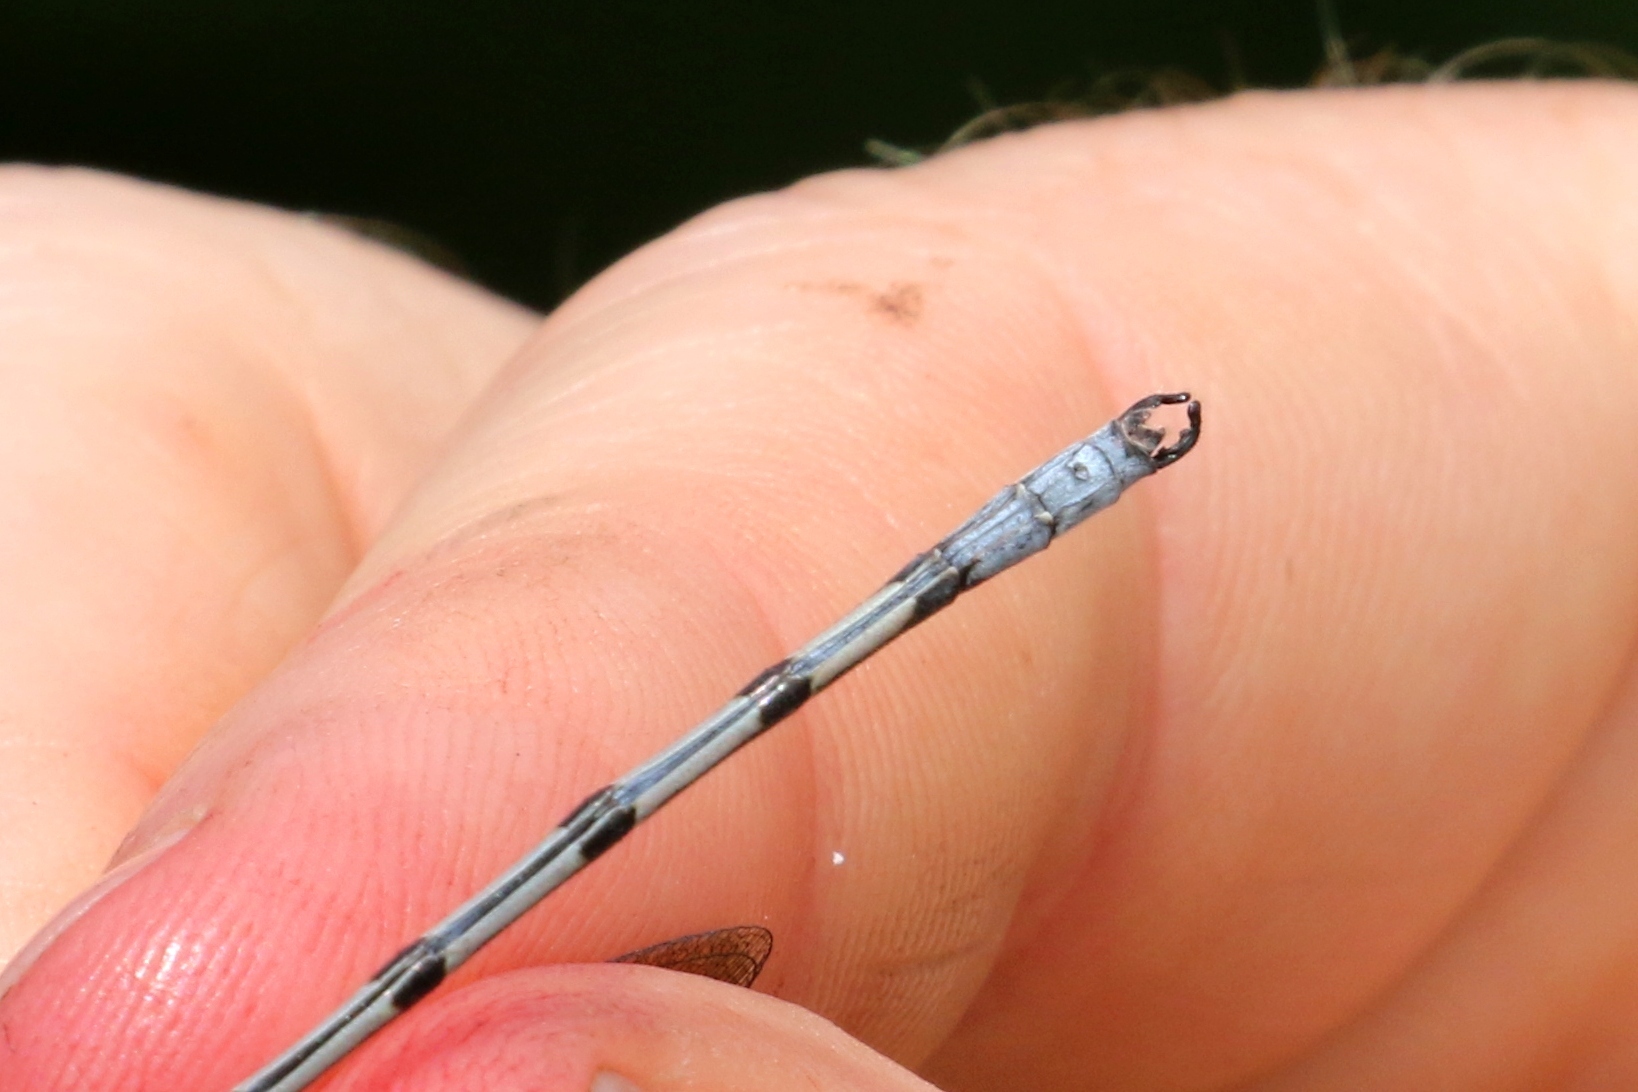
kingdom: Animalia
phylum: Arthropoda
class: Insecta
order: Odonata
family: Lestidae
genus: Lestes
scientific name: Lestes eurinus
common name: Amber-winged spreadwing
